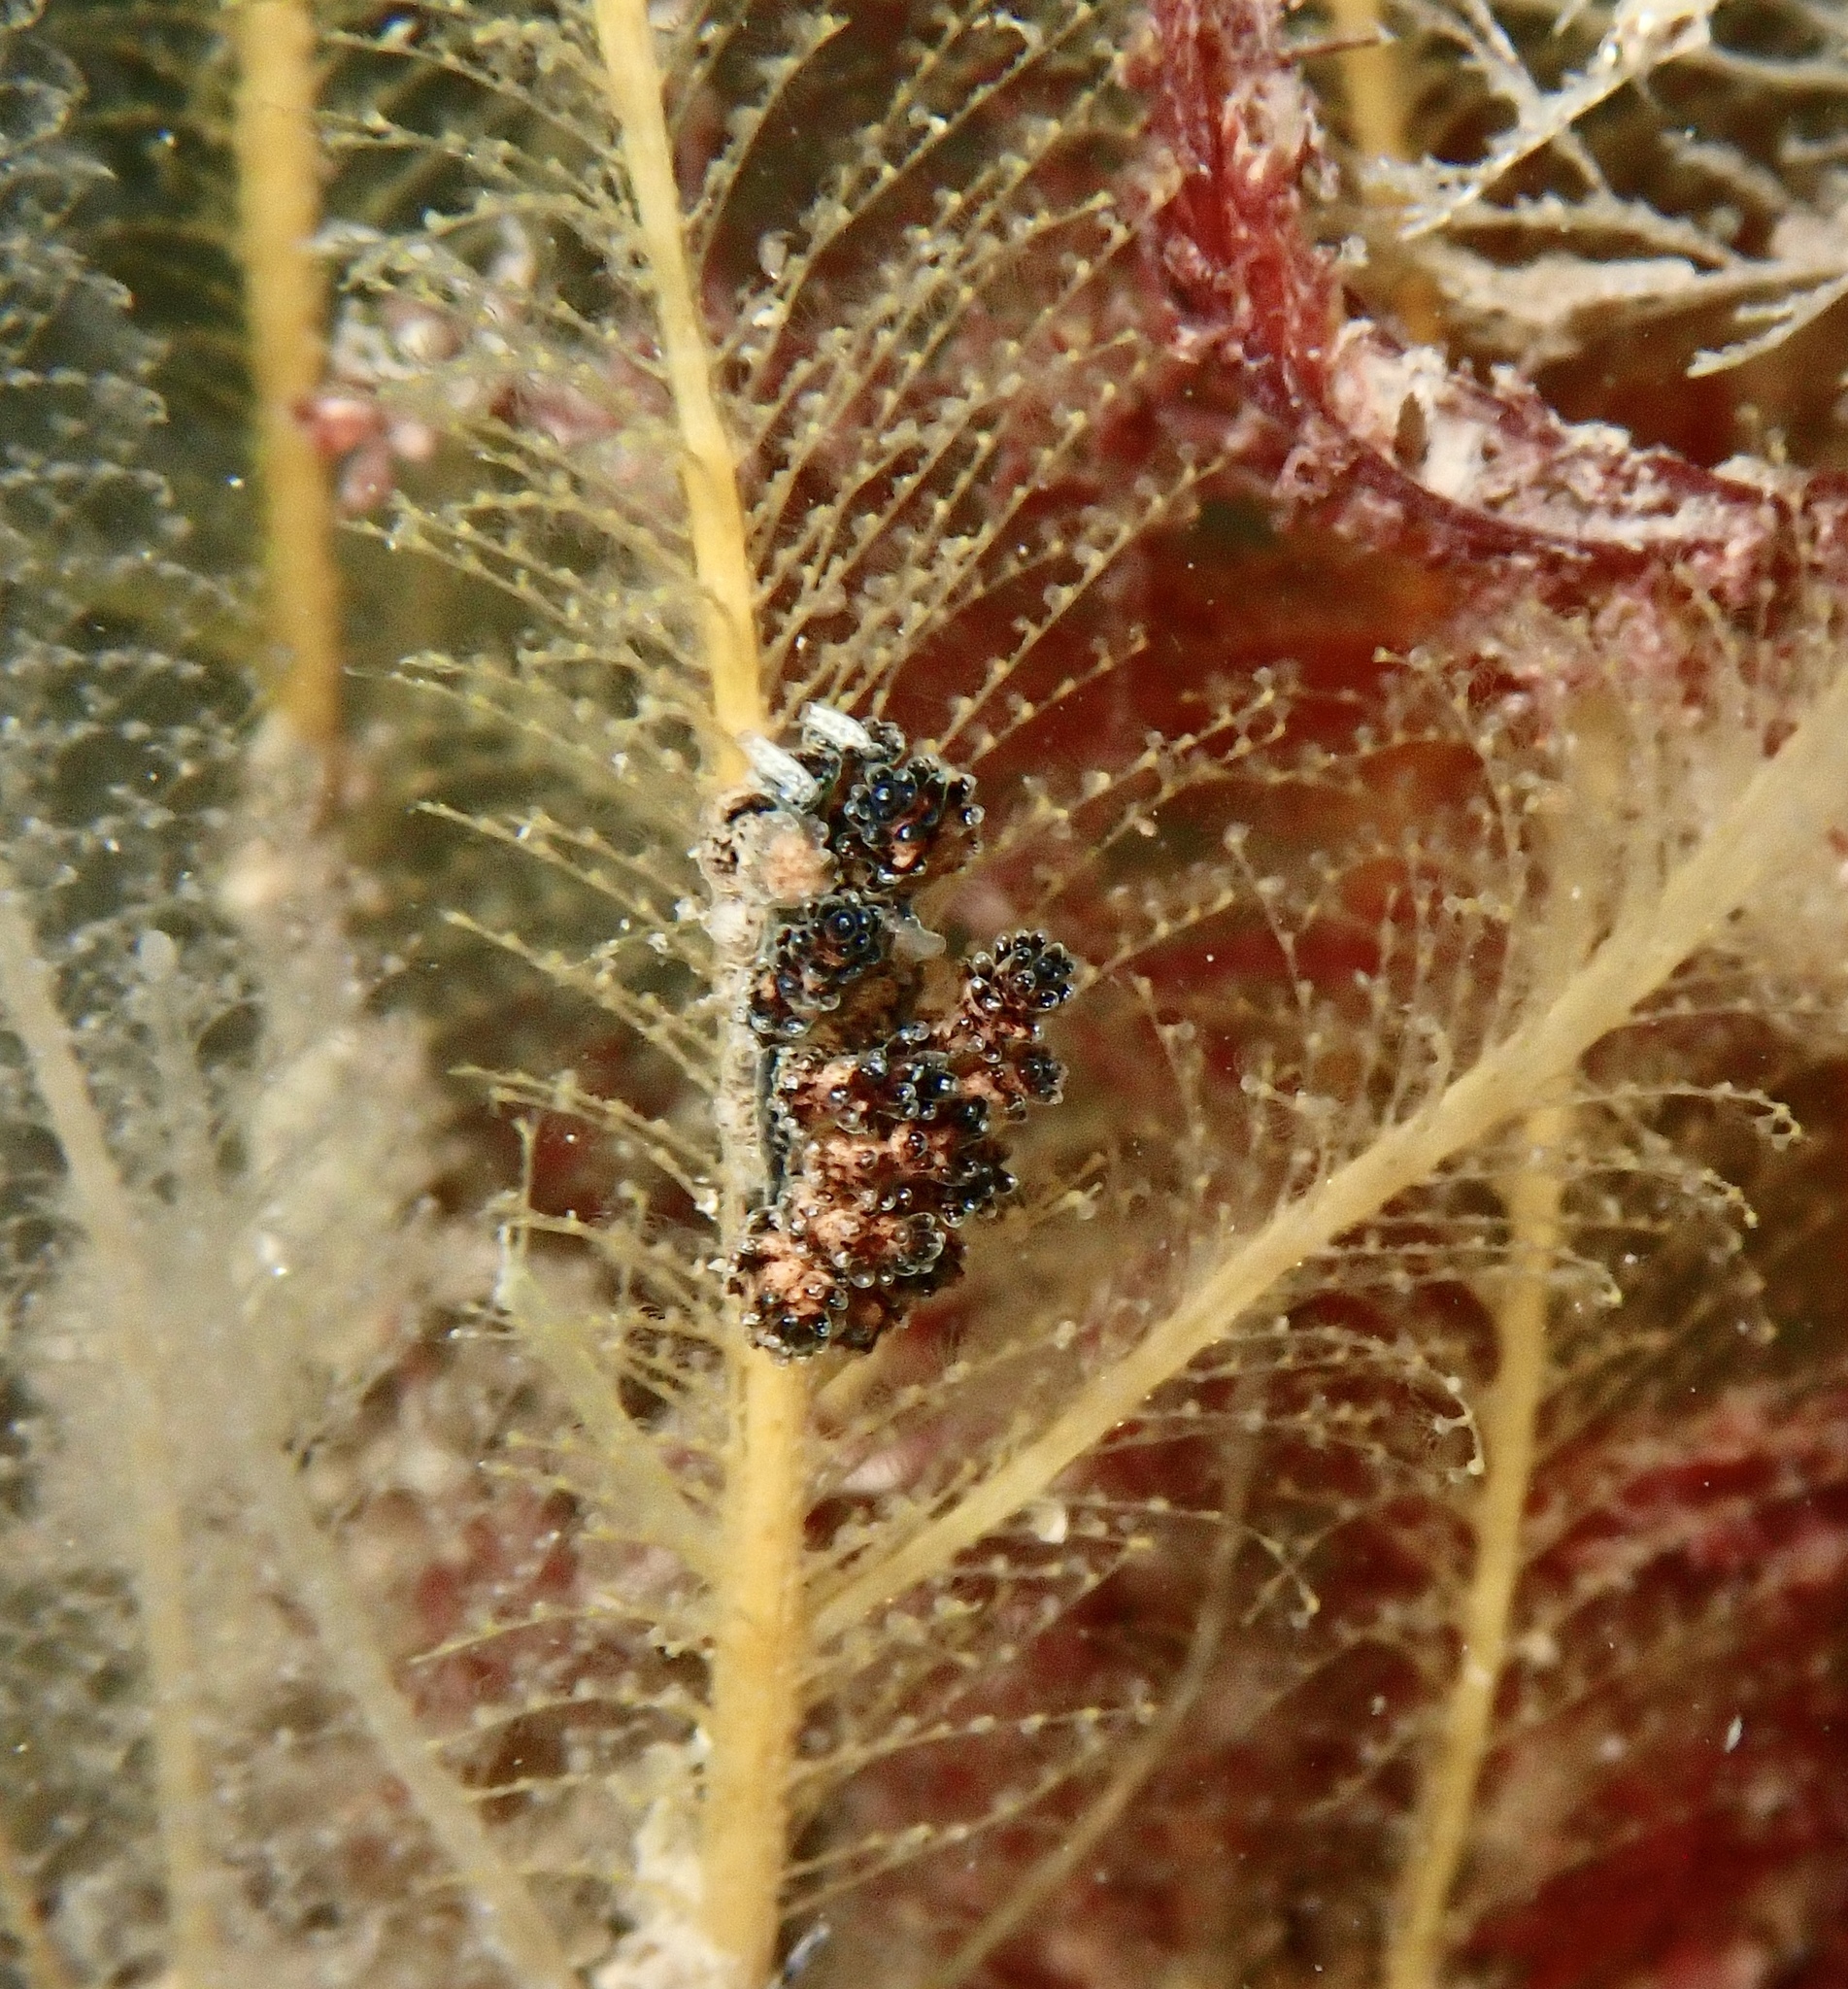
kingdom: Animalia
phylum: Mollusca
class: Gastropoda
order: Nudibranchia
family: Dotidae
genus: Doto
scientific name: Doto cuspidata
